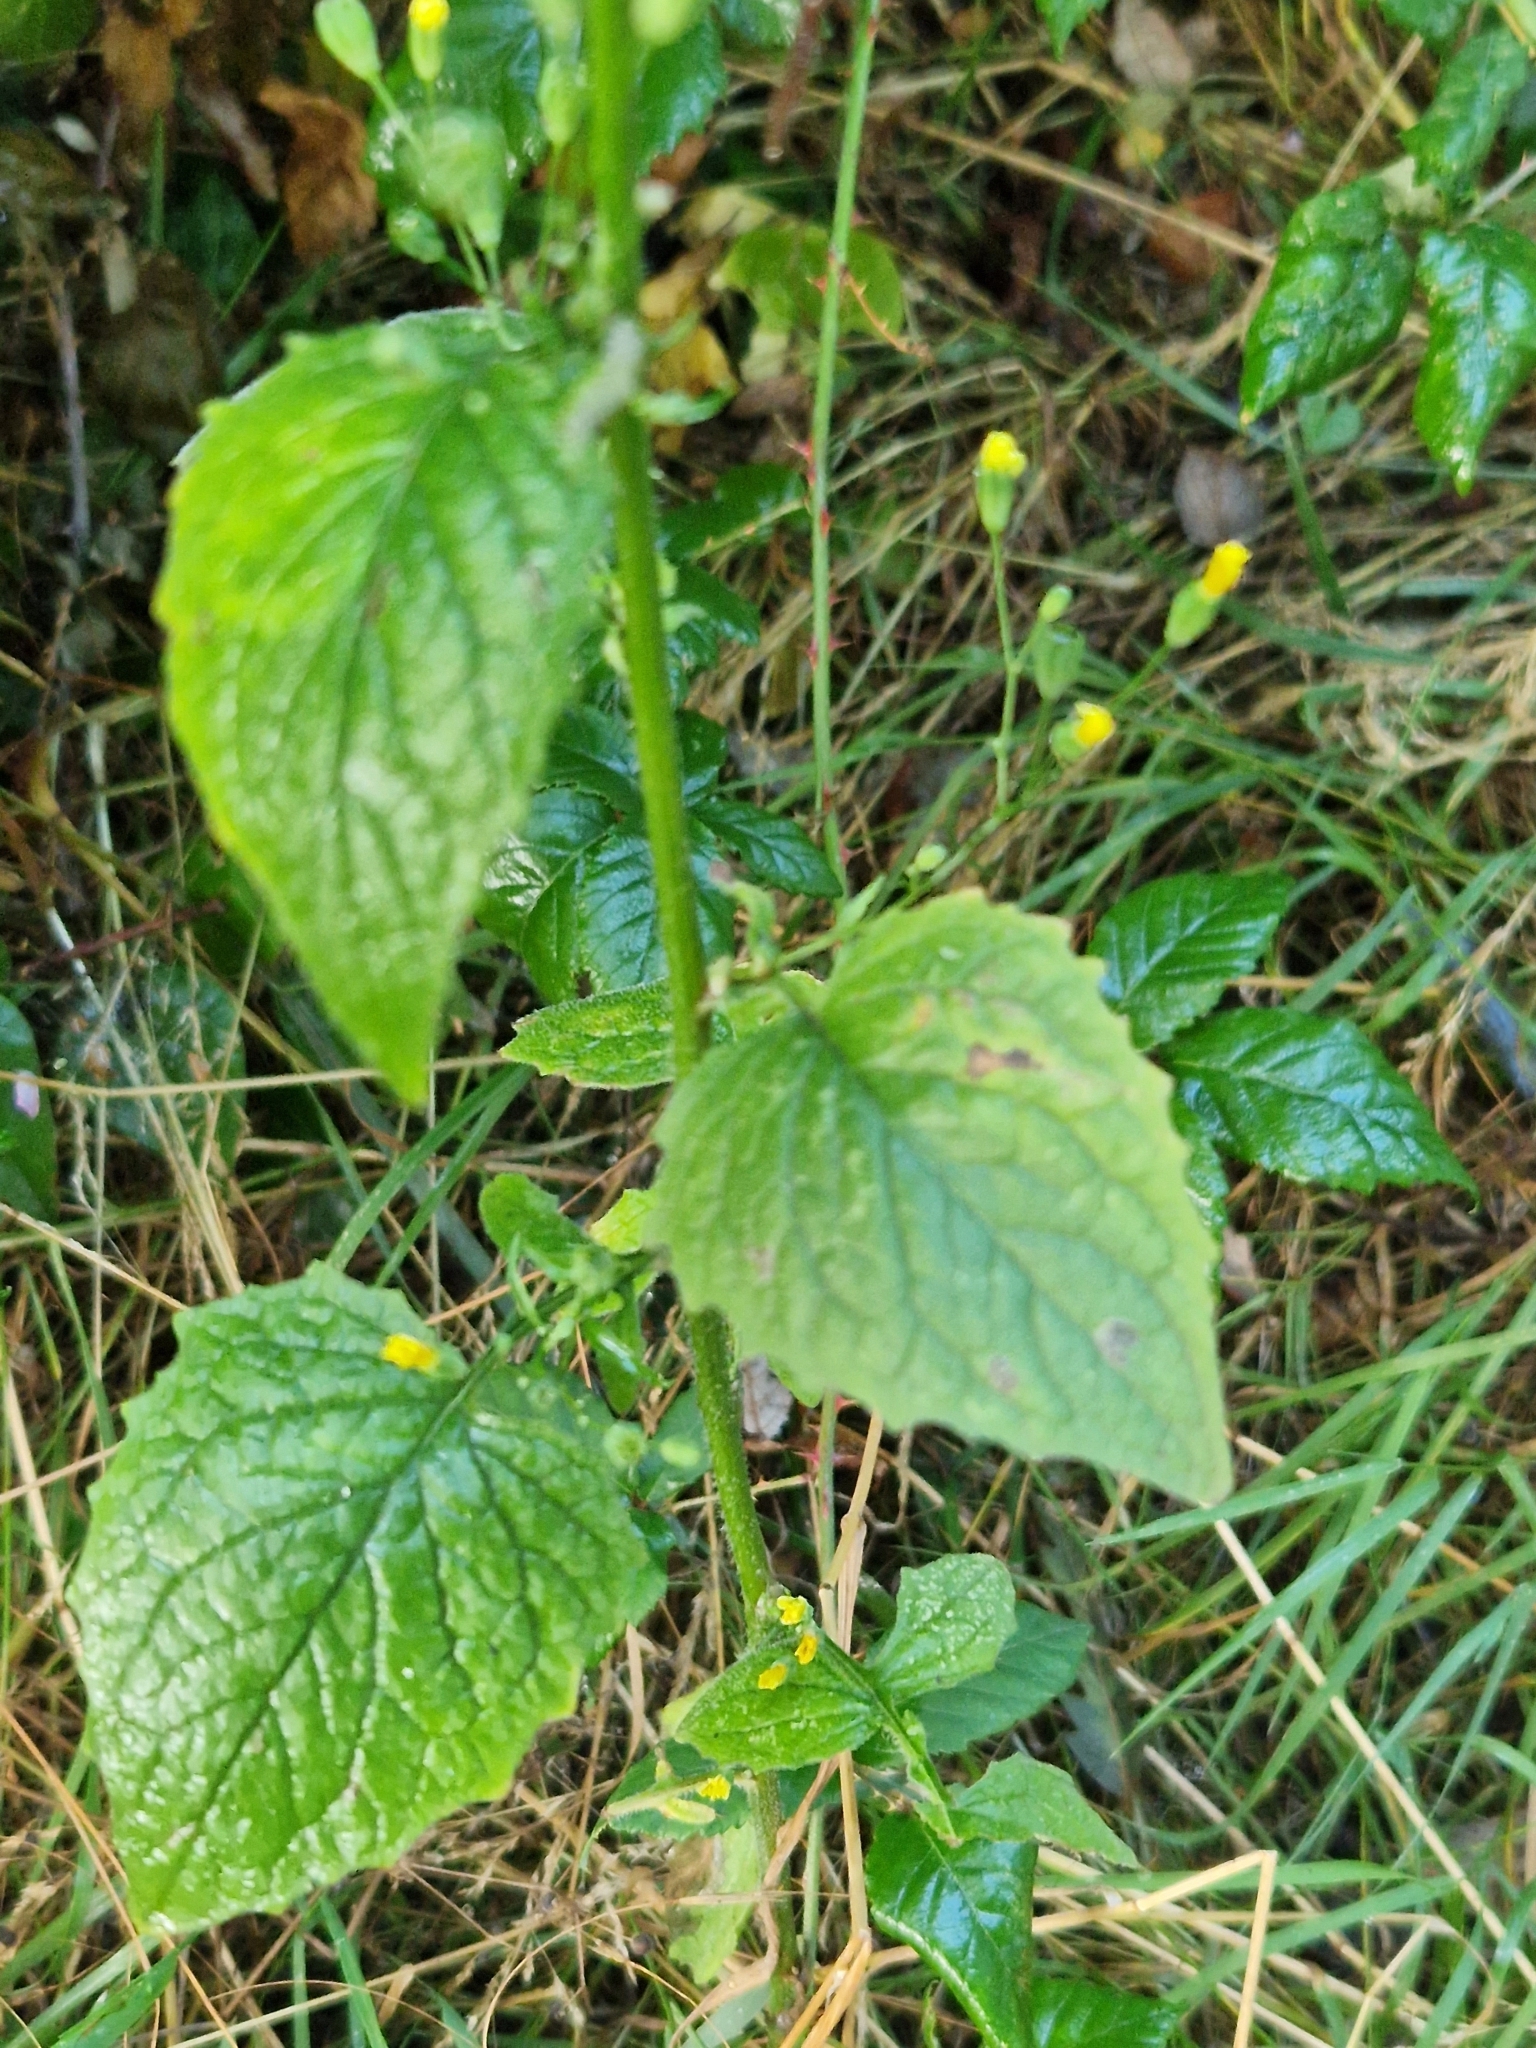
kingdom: Plantae
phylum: Tracheophyta
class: Magnoliopsida
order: Asterales
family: Asteraceae
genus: Lapsana
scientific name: Lapsana communis
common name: Nipplewort
